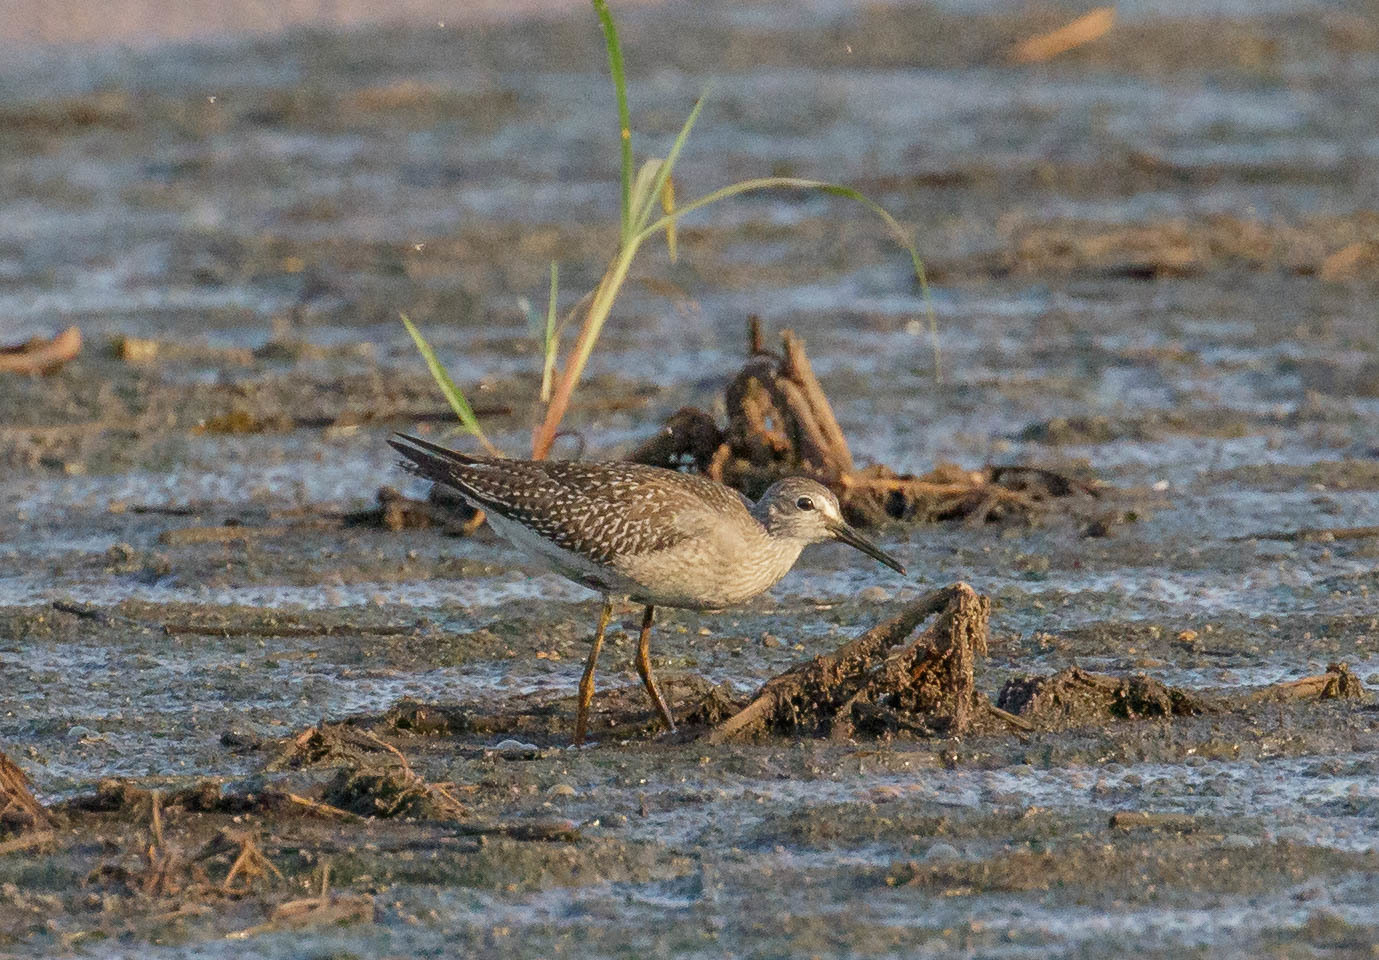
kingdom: Animalia
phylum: Chordata
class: Aves
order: Charadriiformes
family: Scolopacidae
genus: Tringa
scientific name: Tringa flavipes
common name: Lesser yellowlegs
